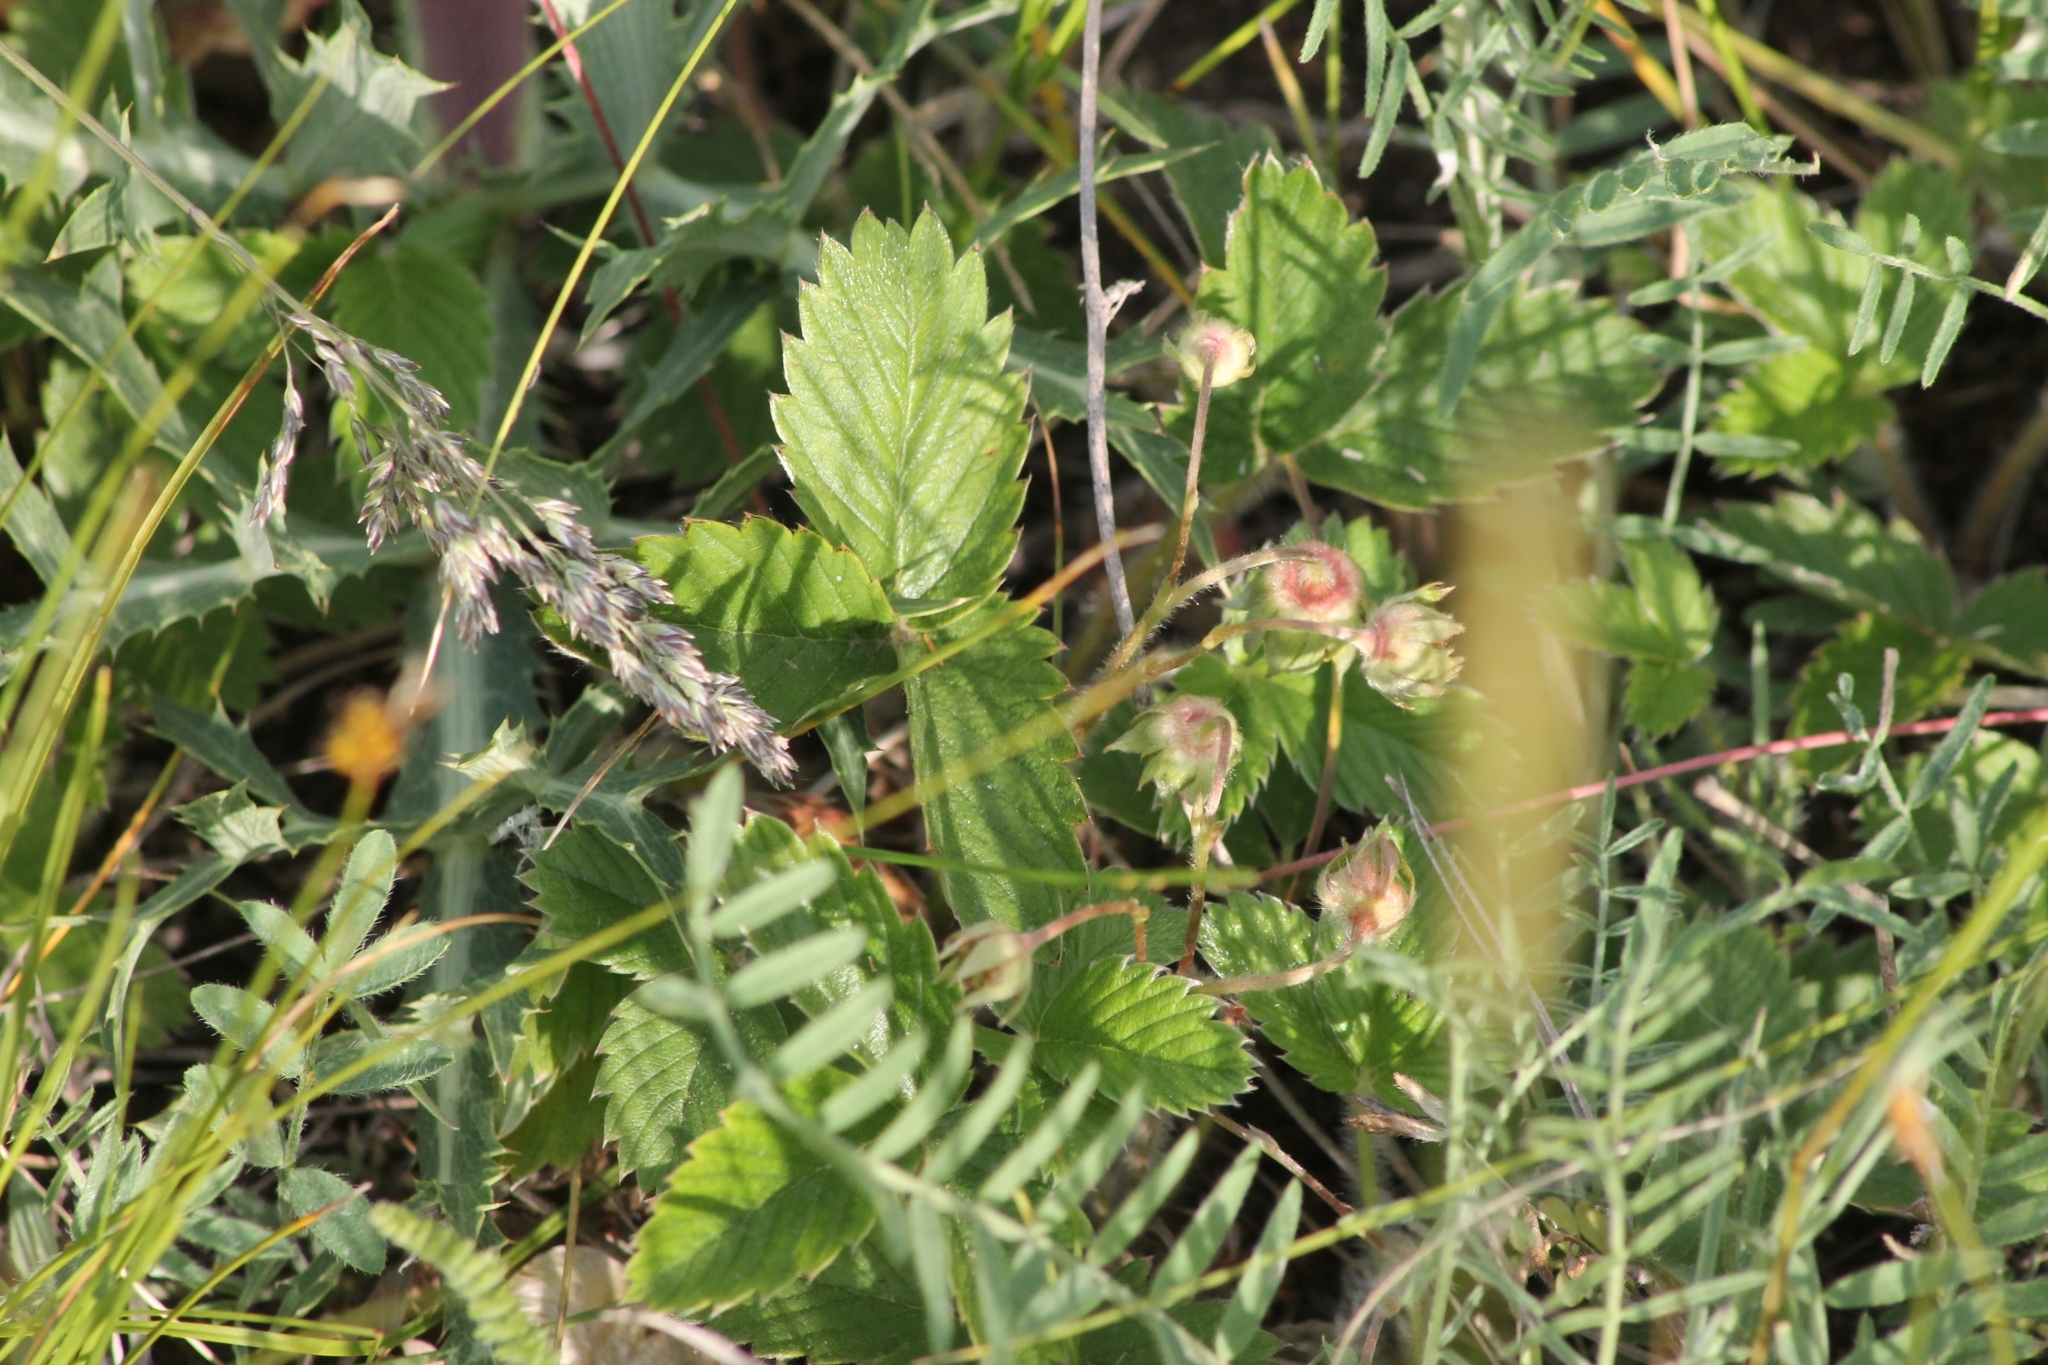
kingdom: Plantae
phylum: Tracheophyta
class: Magnoliopsida
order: Rosales
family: Rosaceae
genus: Fragaria
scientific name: Fragaria viridis
